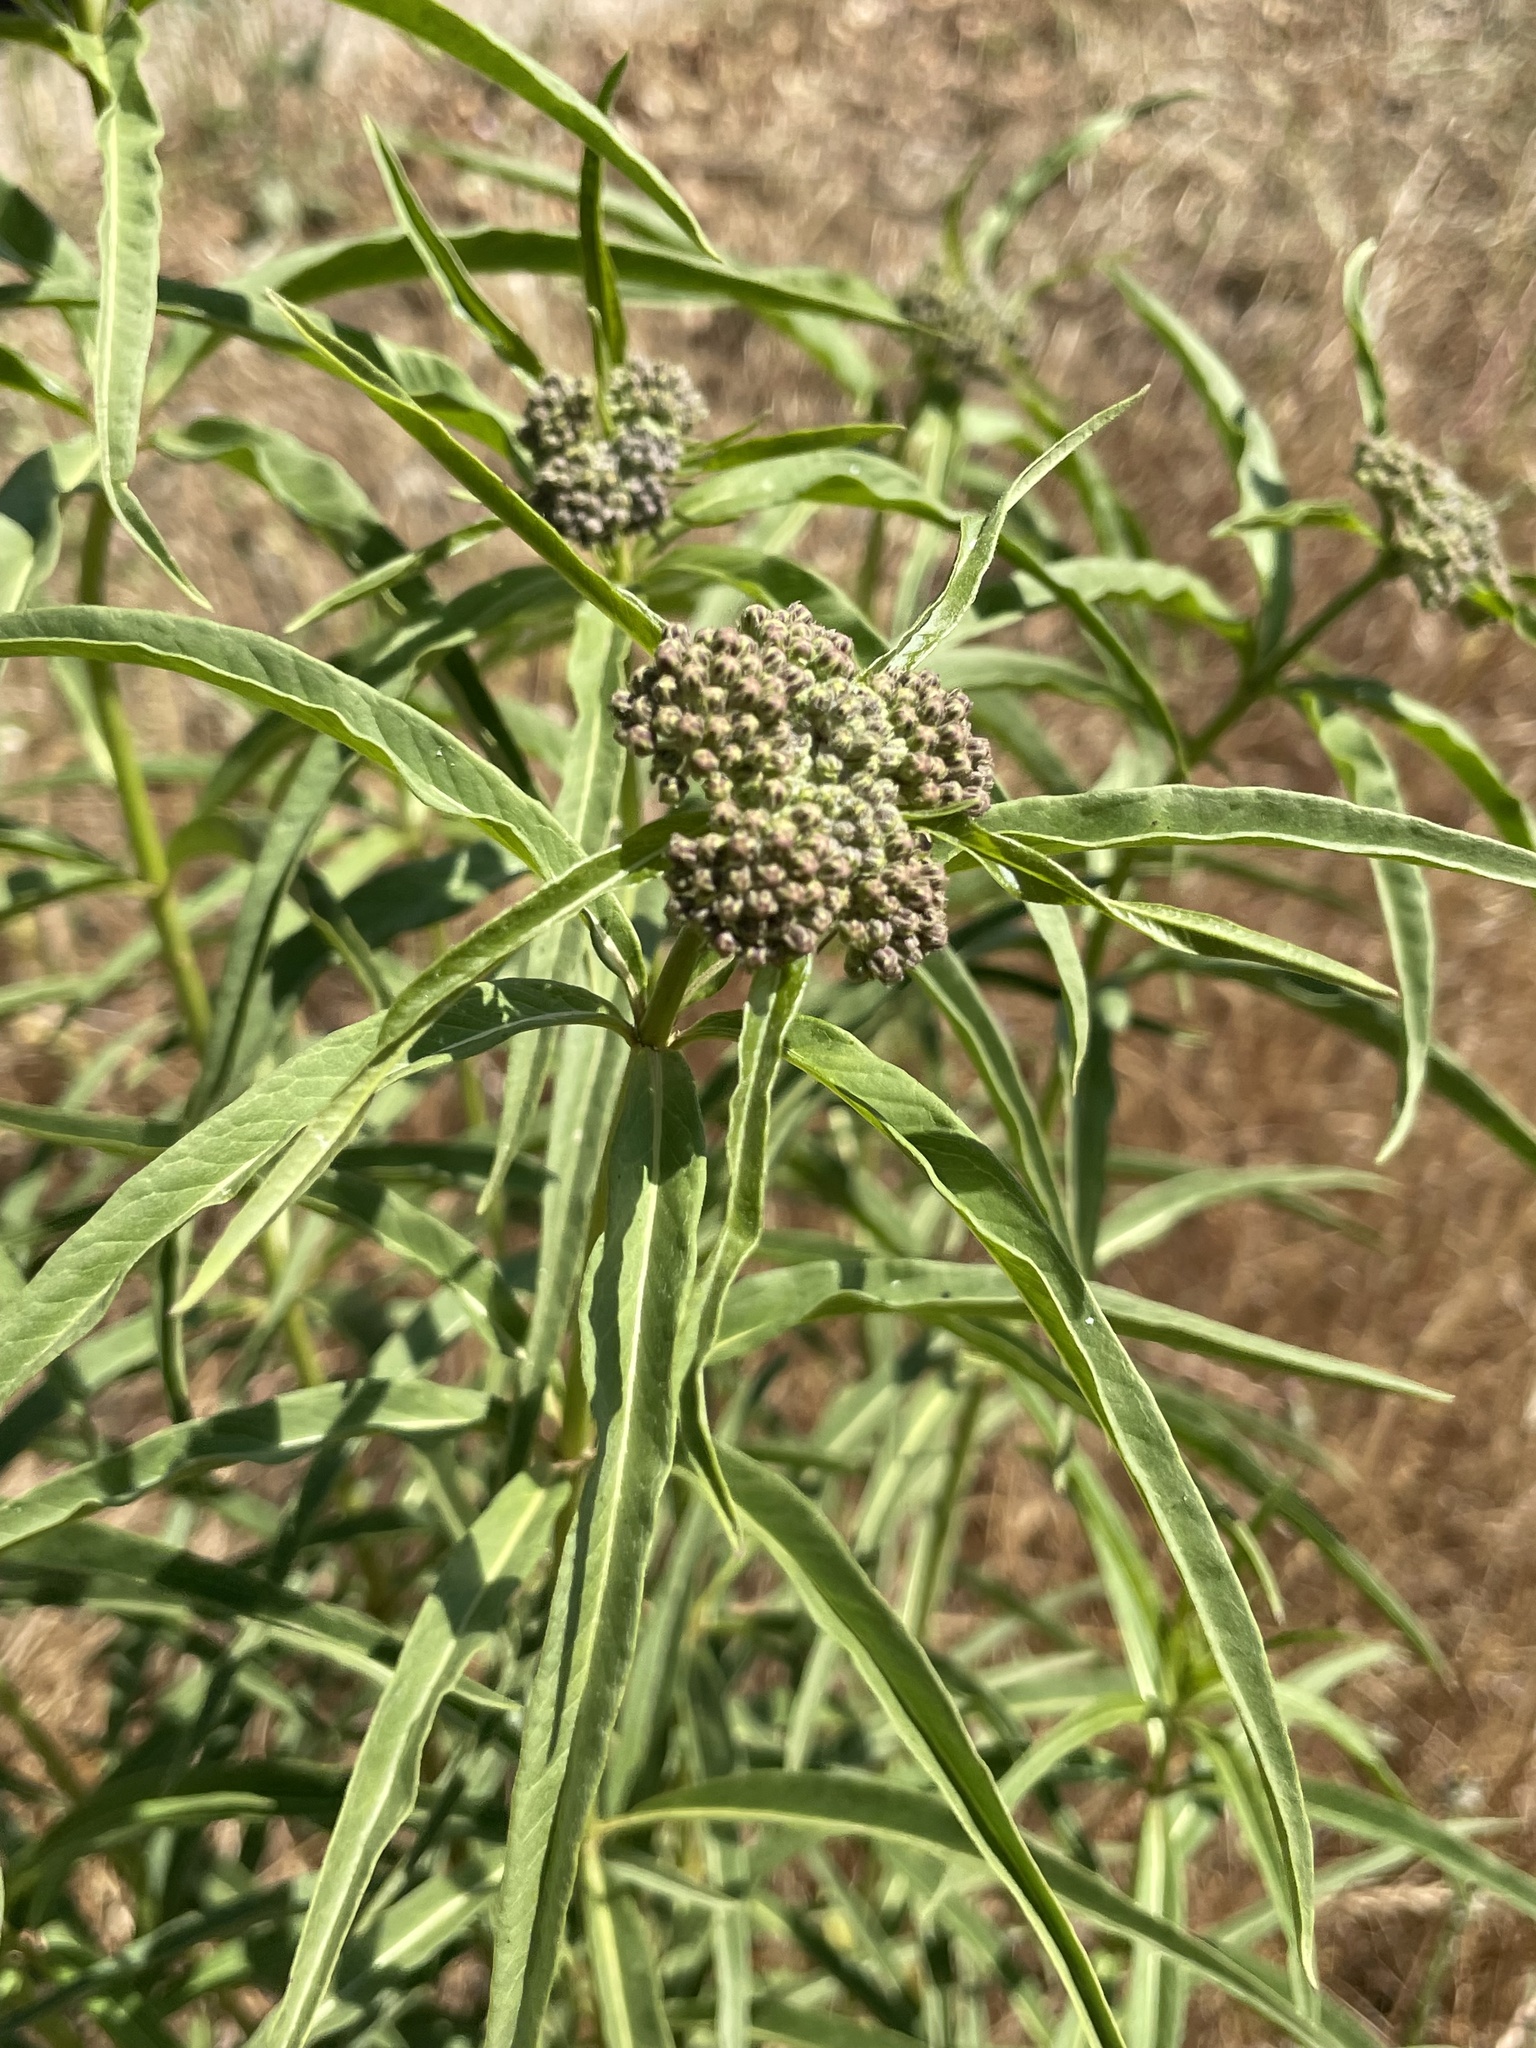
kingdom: Plantae
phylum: Tracheophyta
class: Magnoliopsida
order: Gentianales
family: Apocynaceae
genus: Asclepias
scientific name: Asclepias fascicularis
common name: Mexican milkweed
